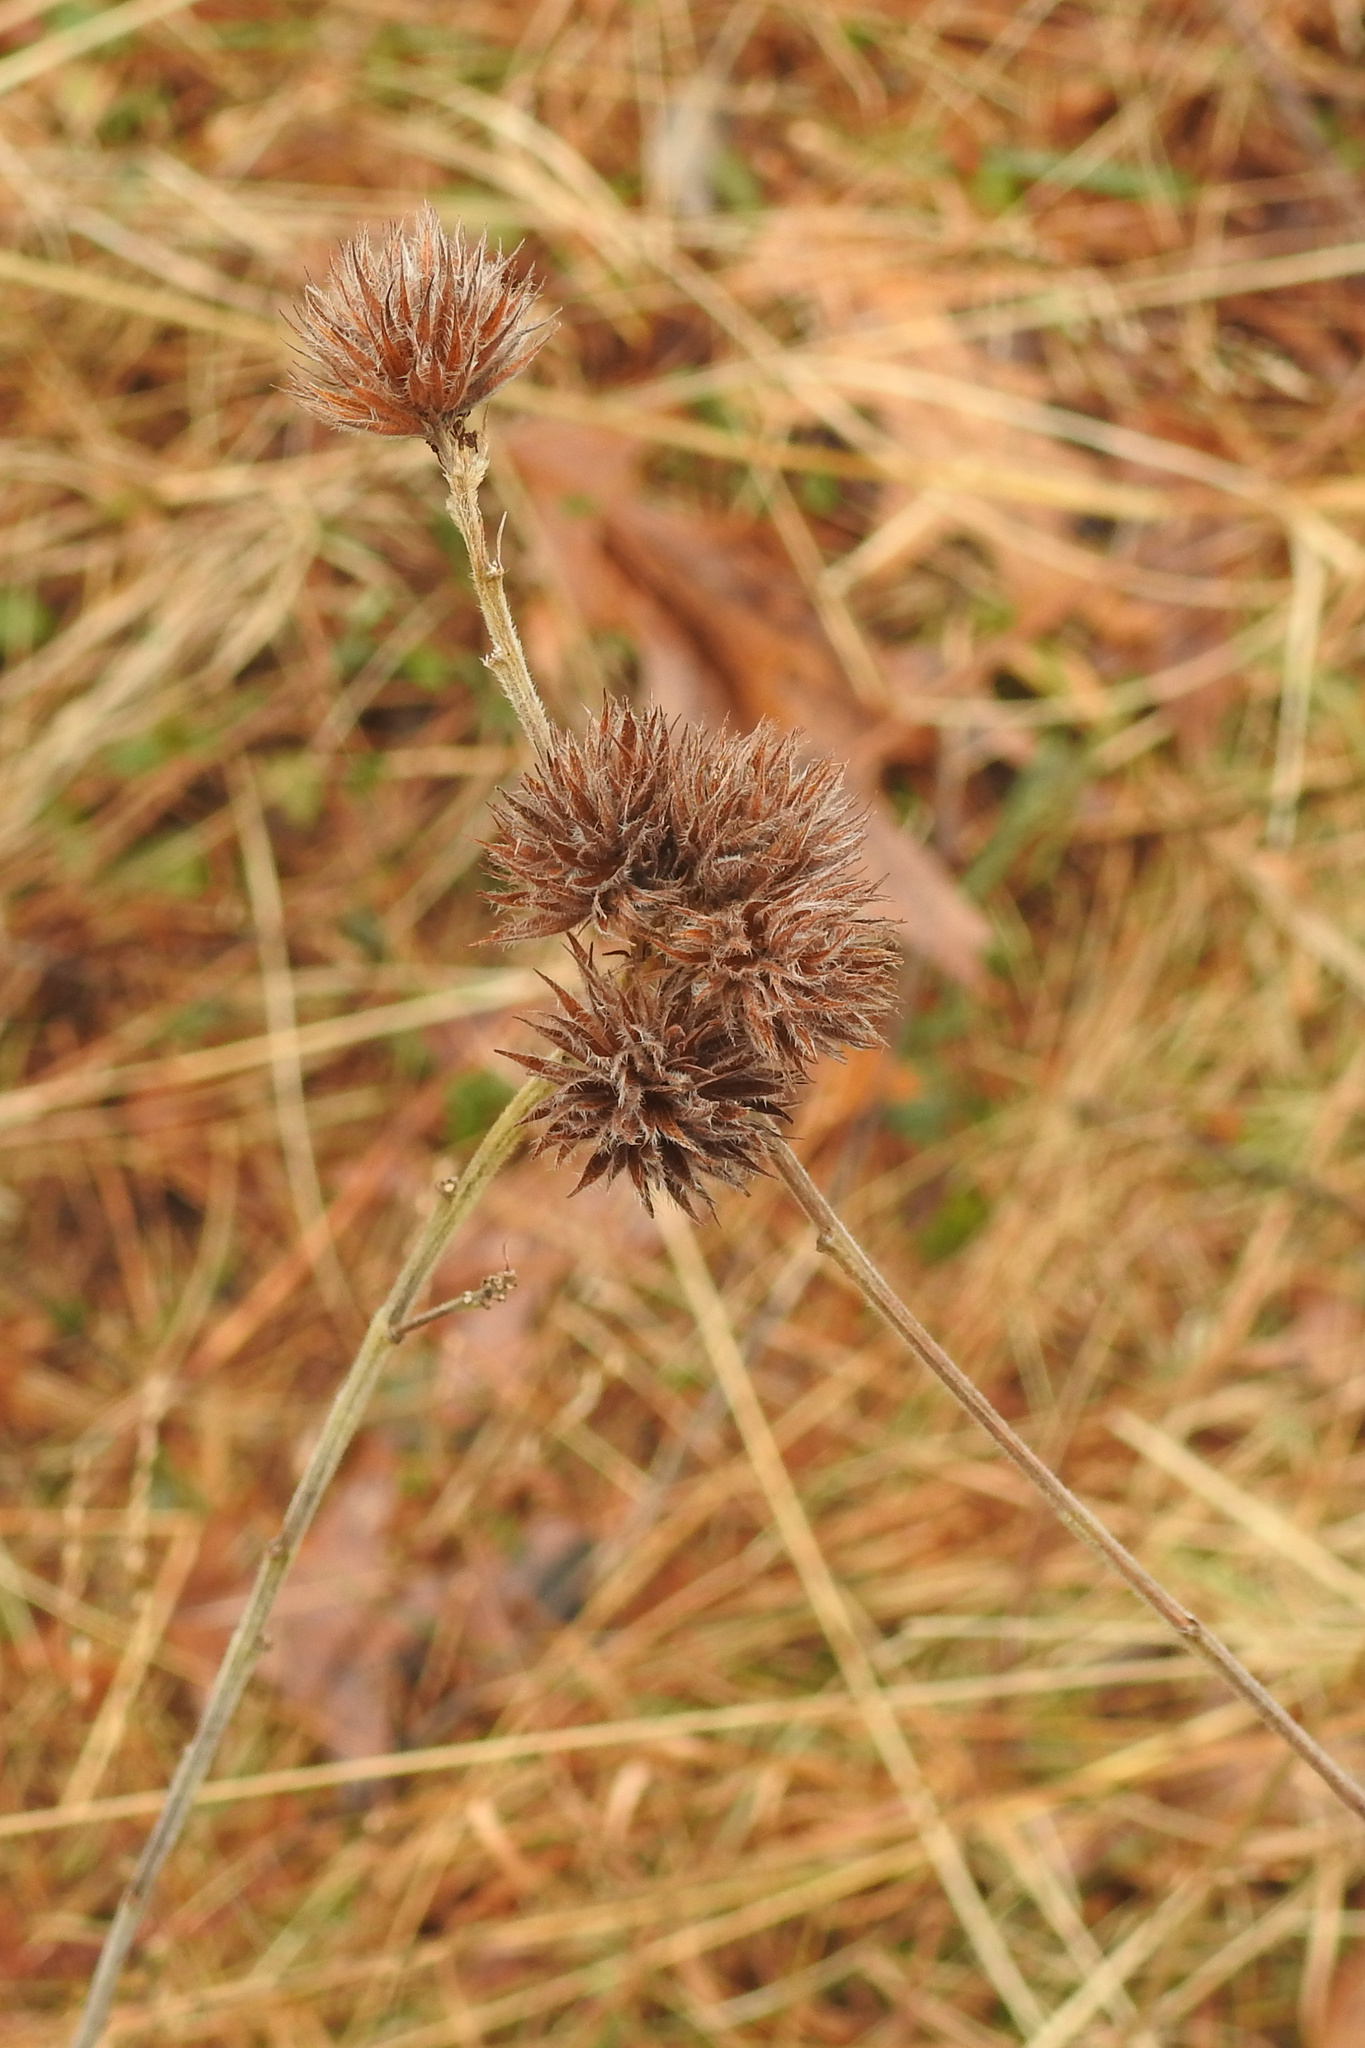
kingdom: Plantae
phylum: Tracheophyta
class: Magnoliopsida
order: Fabales
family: Fabaceae
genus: Lespedeza
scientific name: Lespedeza capitata
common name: Dusty clover
